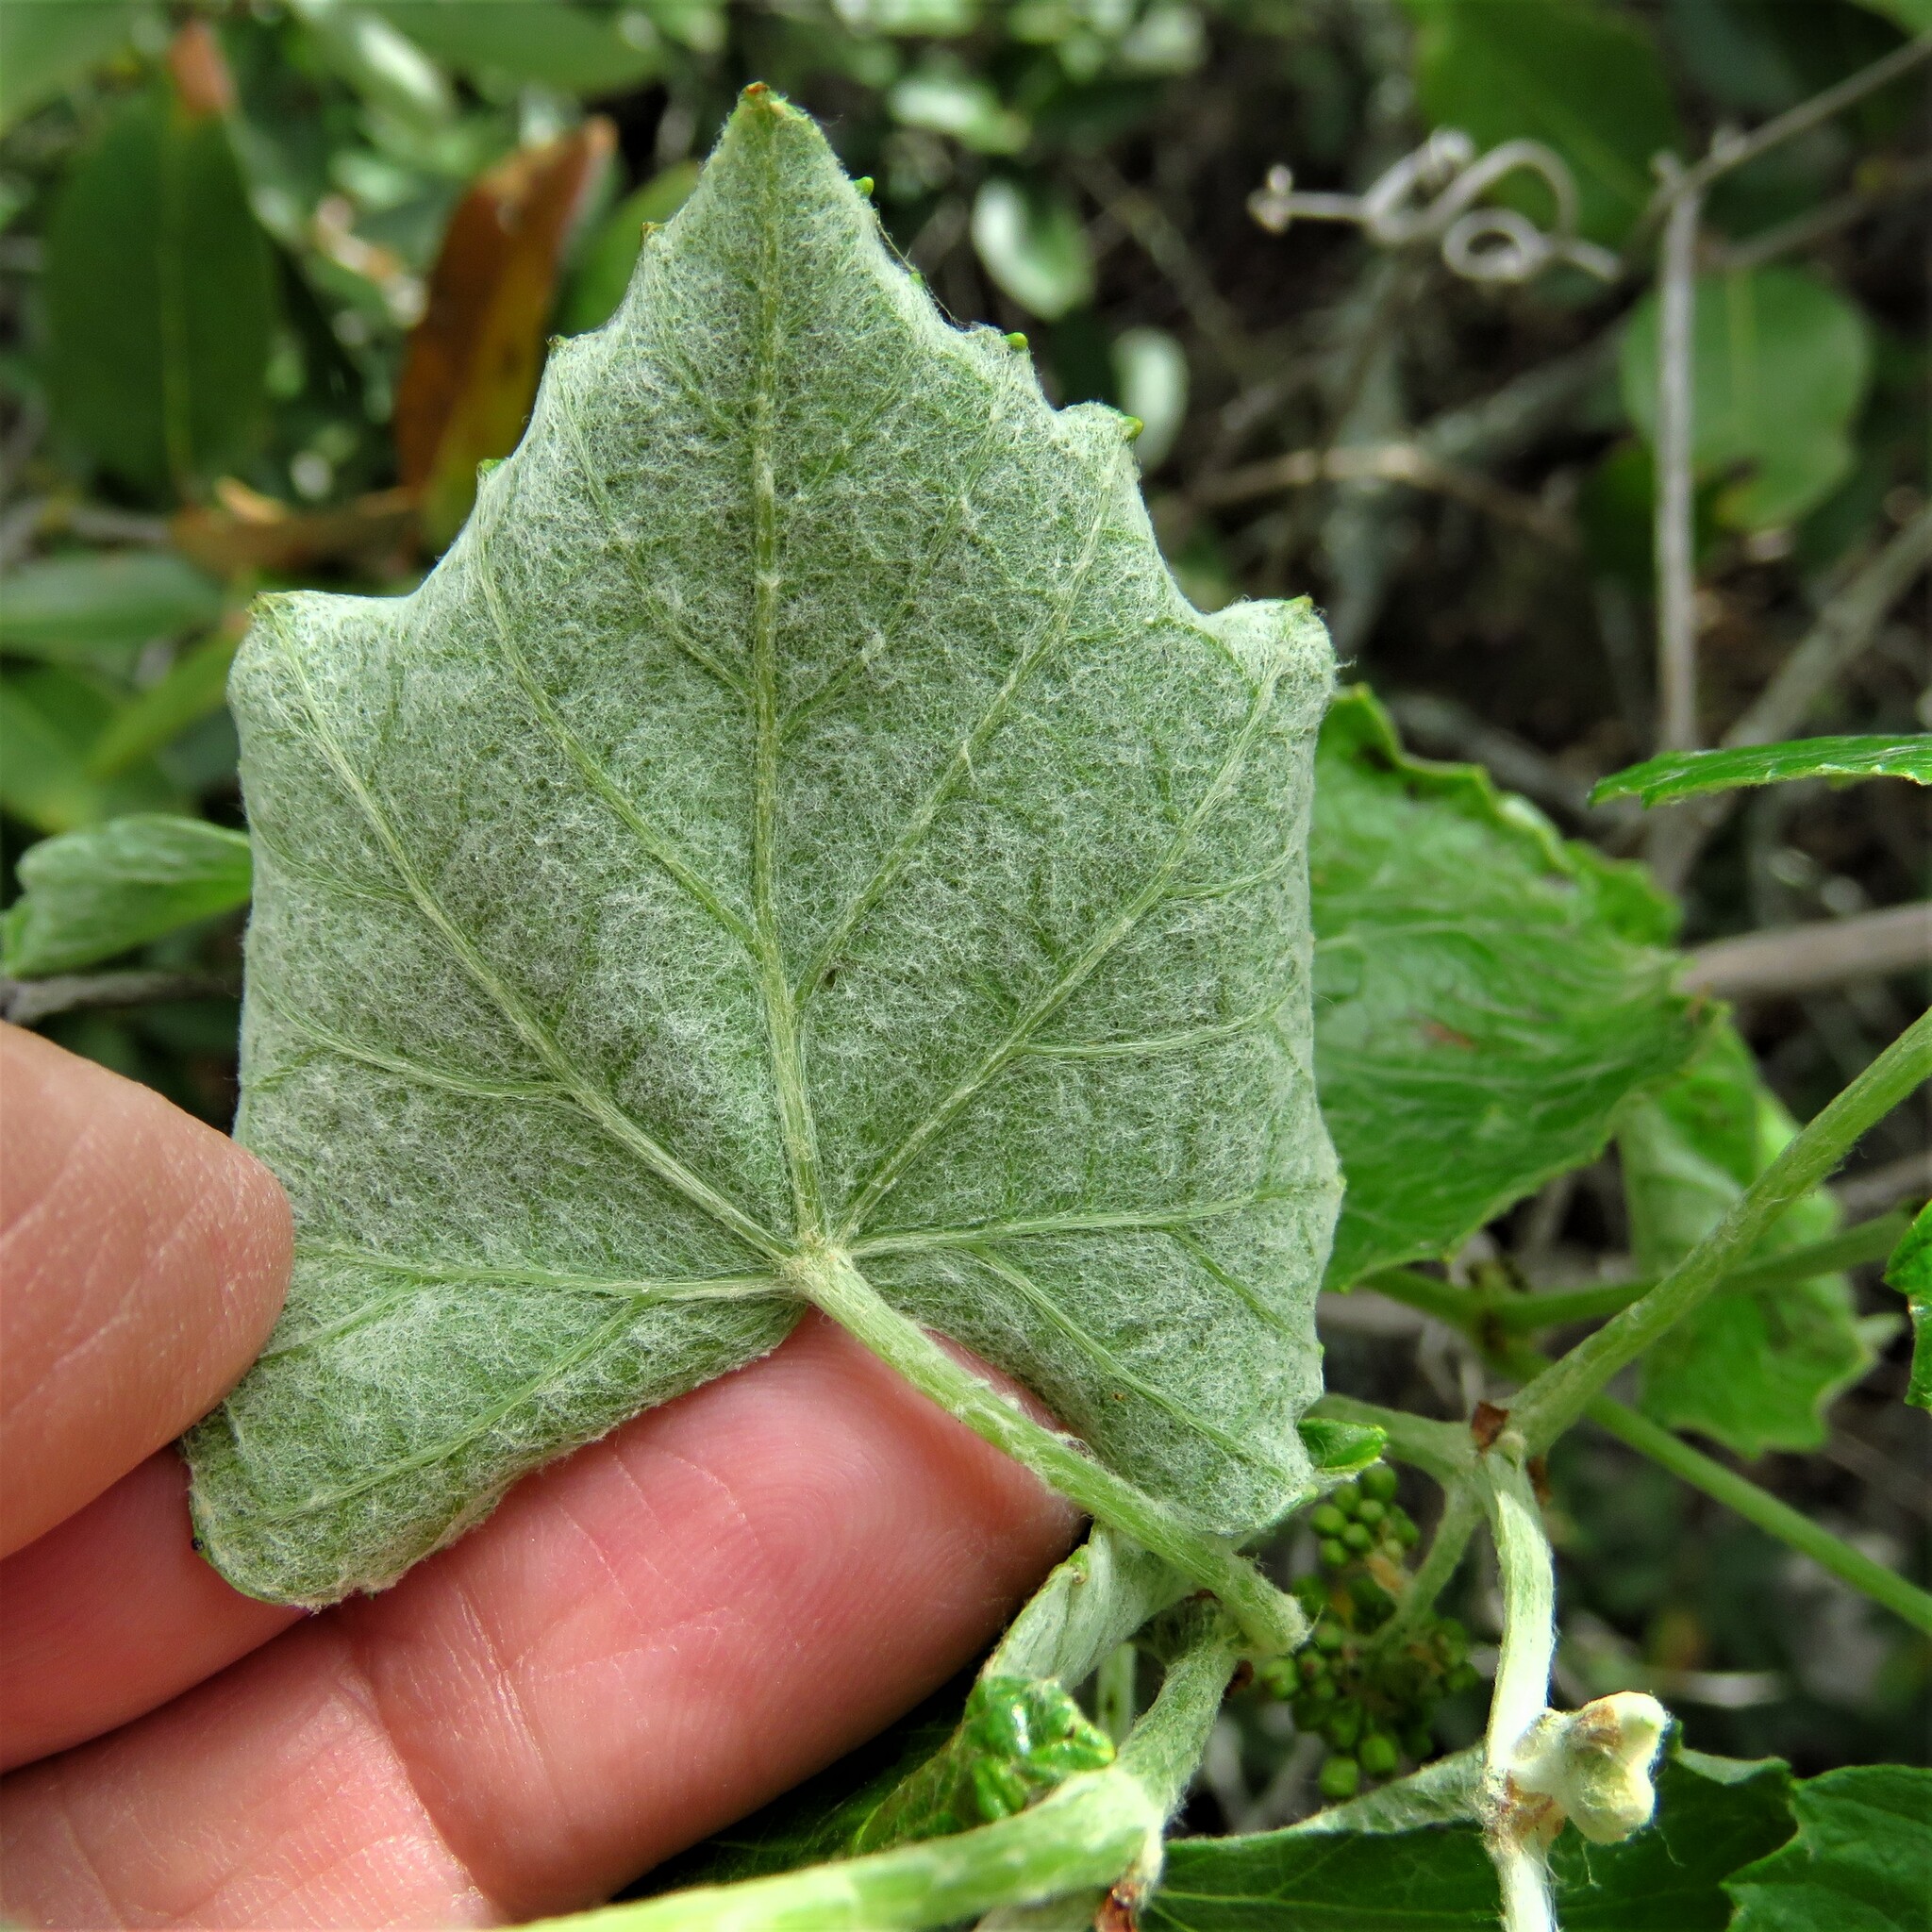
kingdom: Plantae
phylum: Tracheophyta
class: Magnoliopsida
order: Vitales
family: Vitaceae
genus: Vitis
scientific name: Vitis mustangensis
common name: Mustang grape
